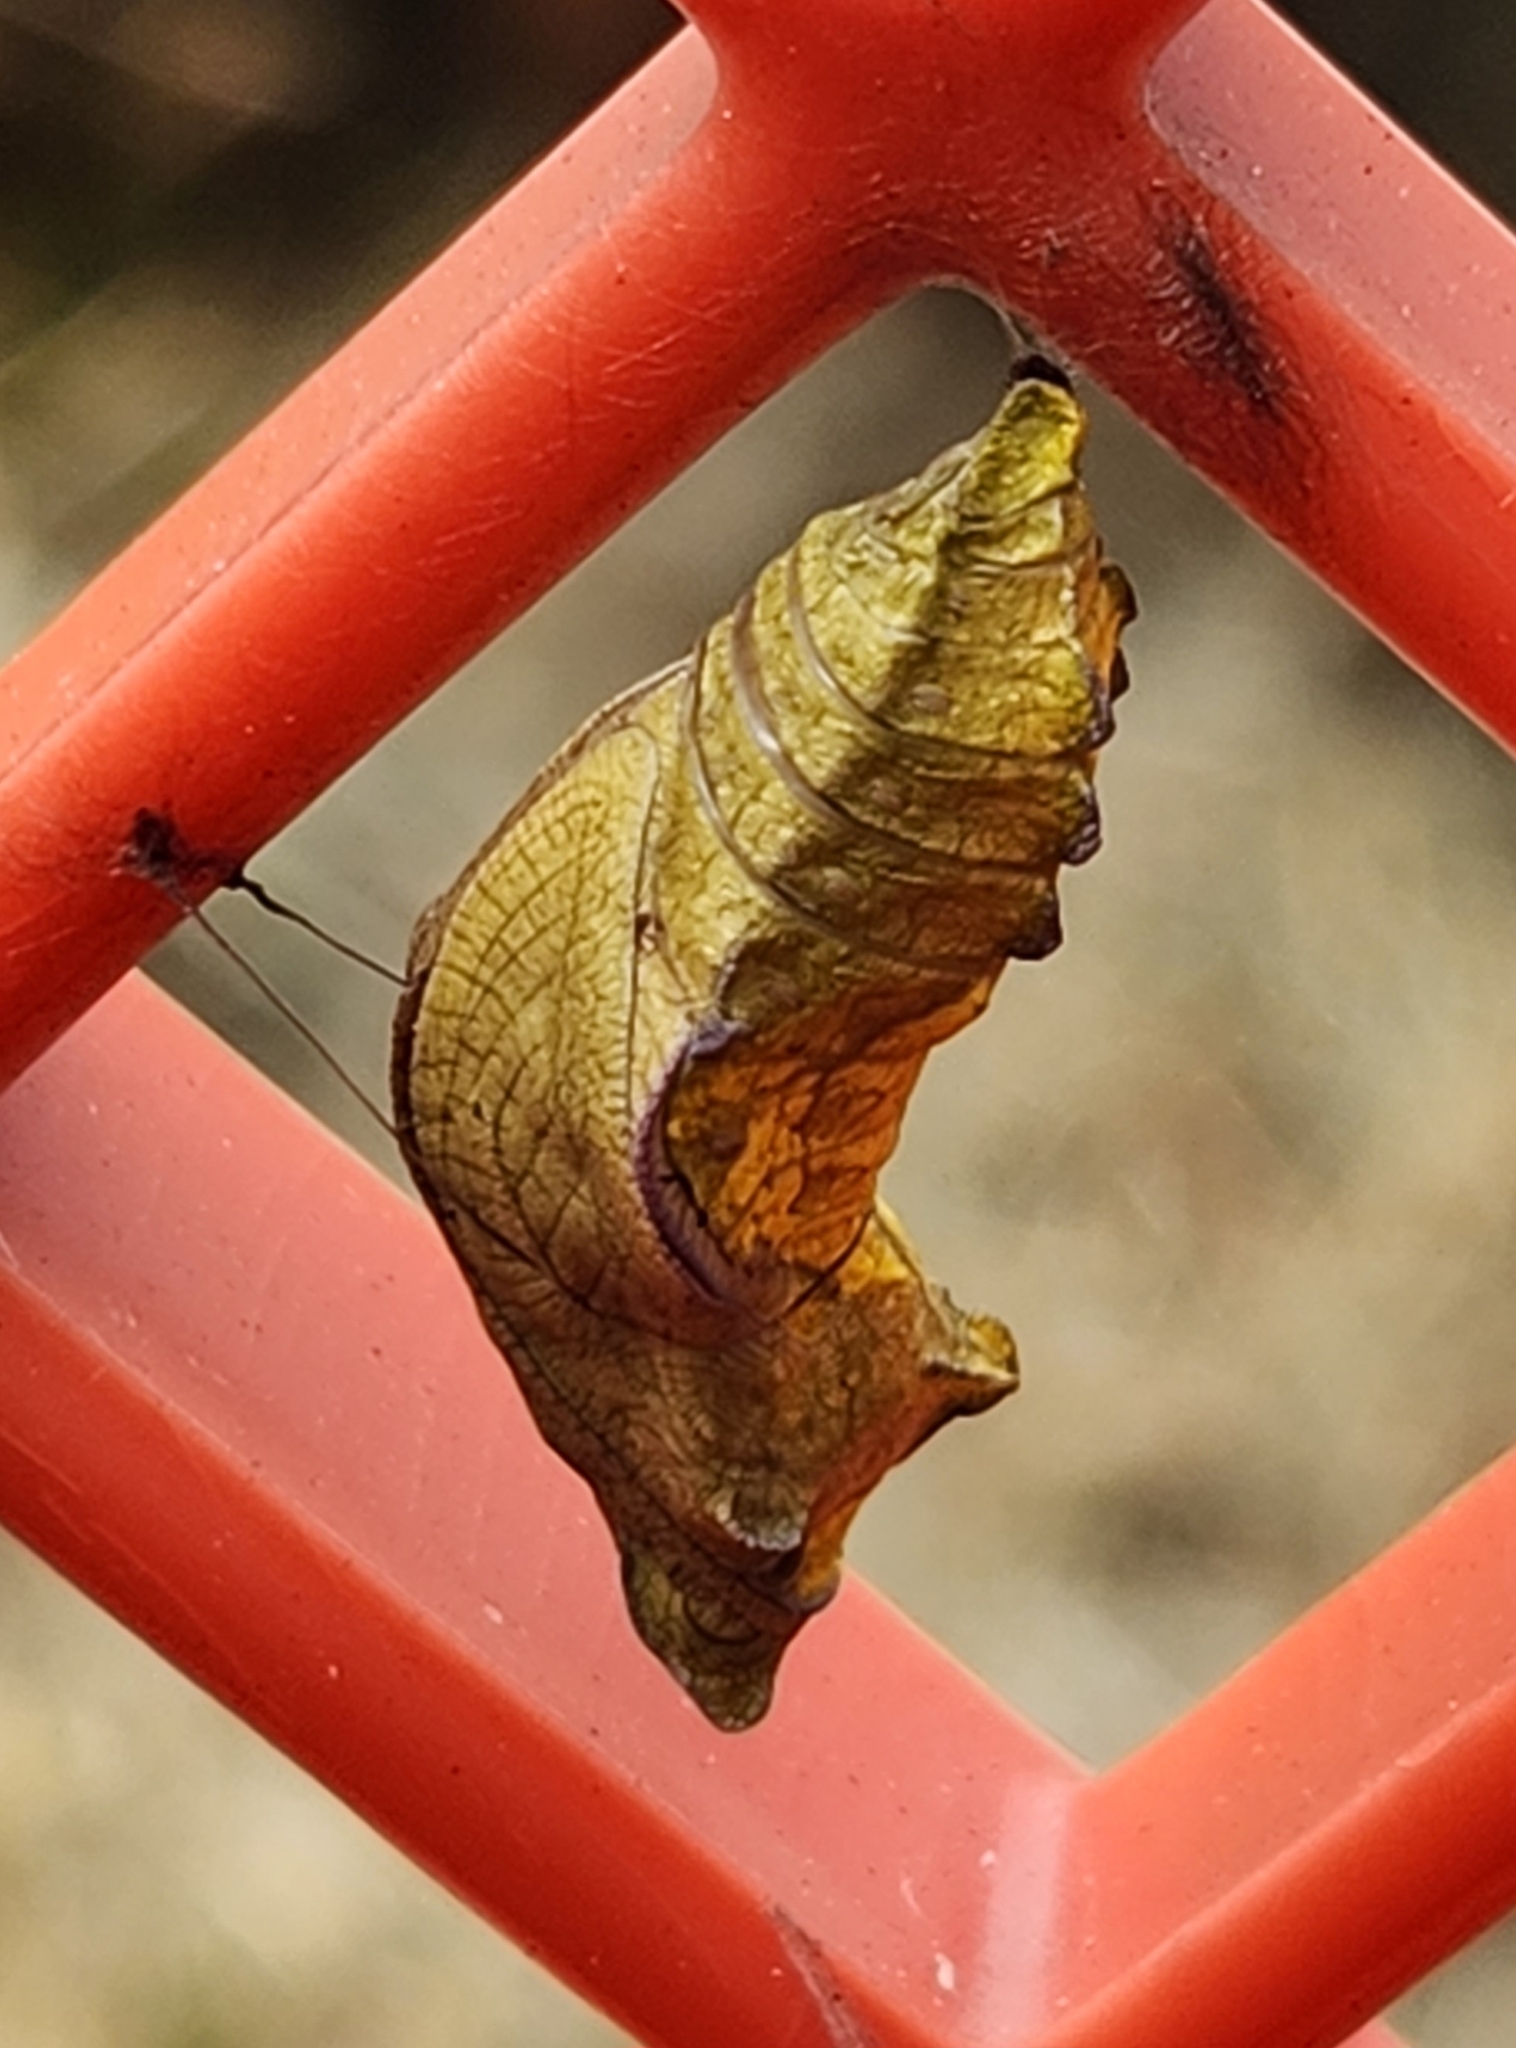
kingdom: Animalia
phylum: Arthropoda
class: Insecta
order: Lepidoptera
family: Papilionidae
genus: Battus
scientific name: Battus philenor
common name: Pipevine swallowtail
